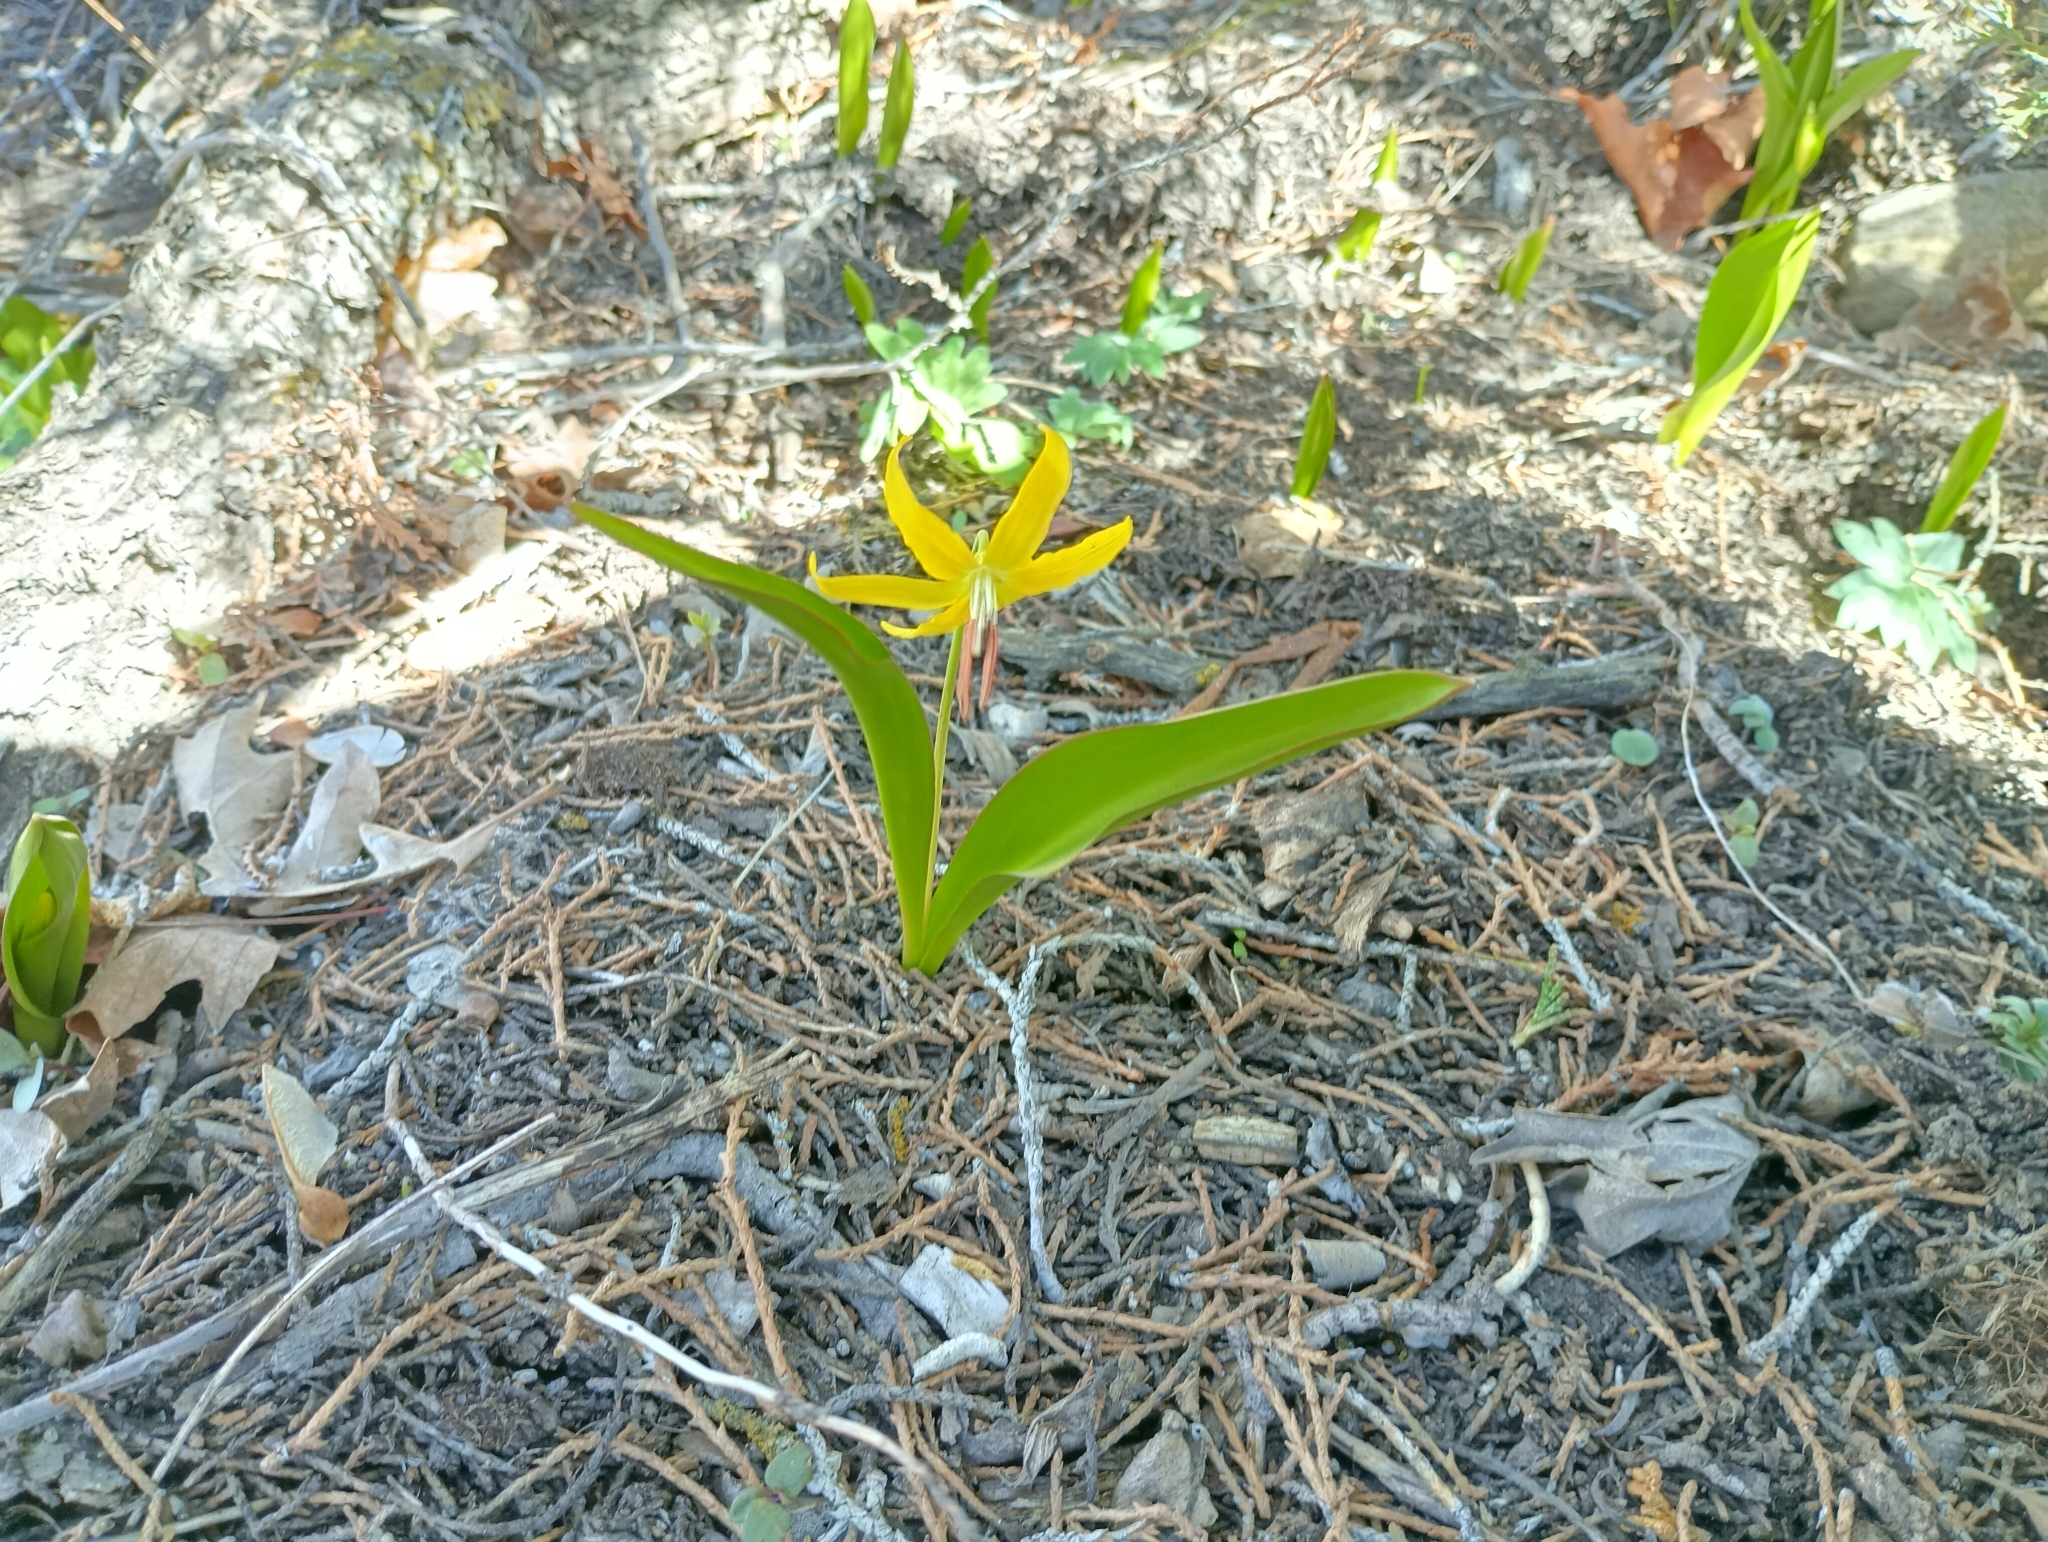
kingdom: Plantae
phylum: Tracheophyta
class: Liliopsida
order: Liliales
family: Liliaceae
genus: Erythronium
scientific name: Erythronium grandiflorum
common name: Avalanche-lily
